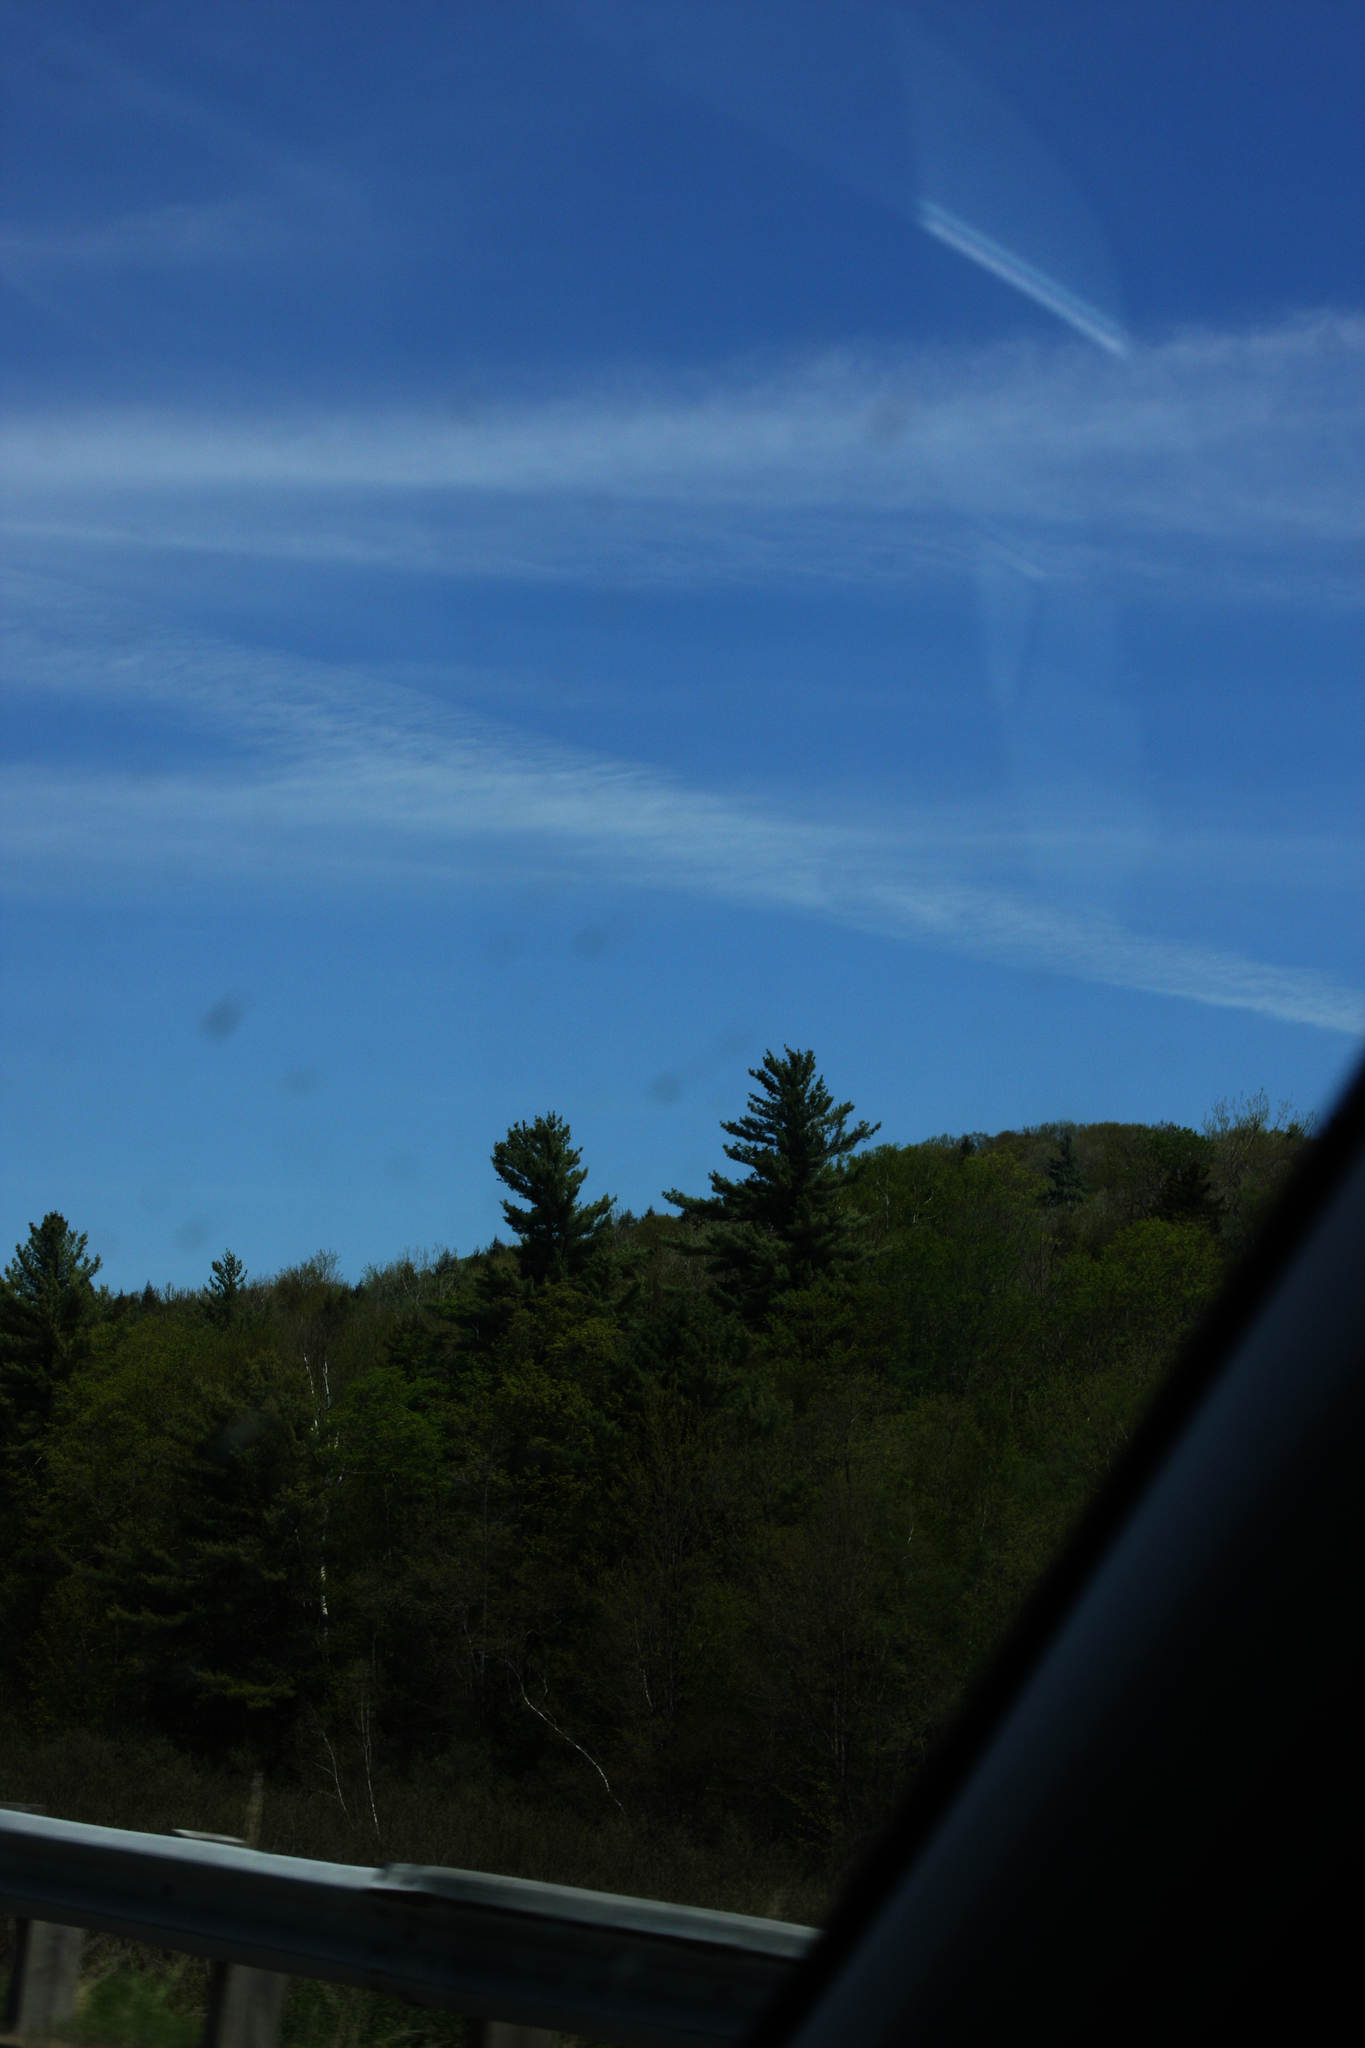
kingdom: Plantae
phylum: Tracheophyta
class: Pinopsida
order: Pinales
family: Pinaceae
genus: Pinus
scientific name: Pinus strobus
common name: Weymouth pine
